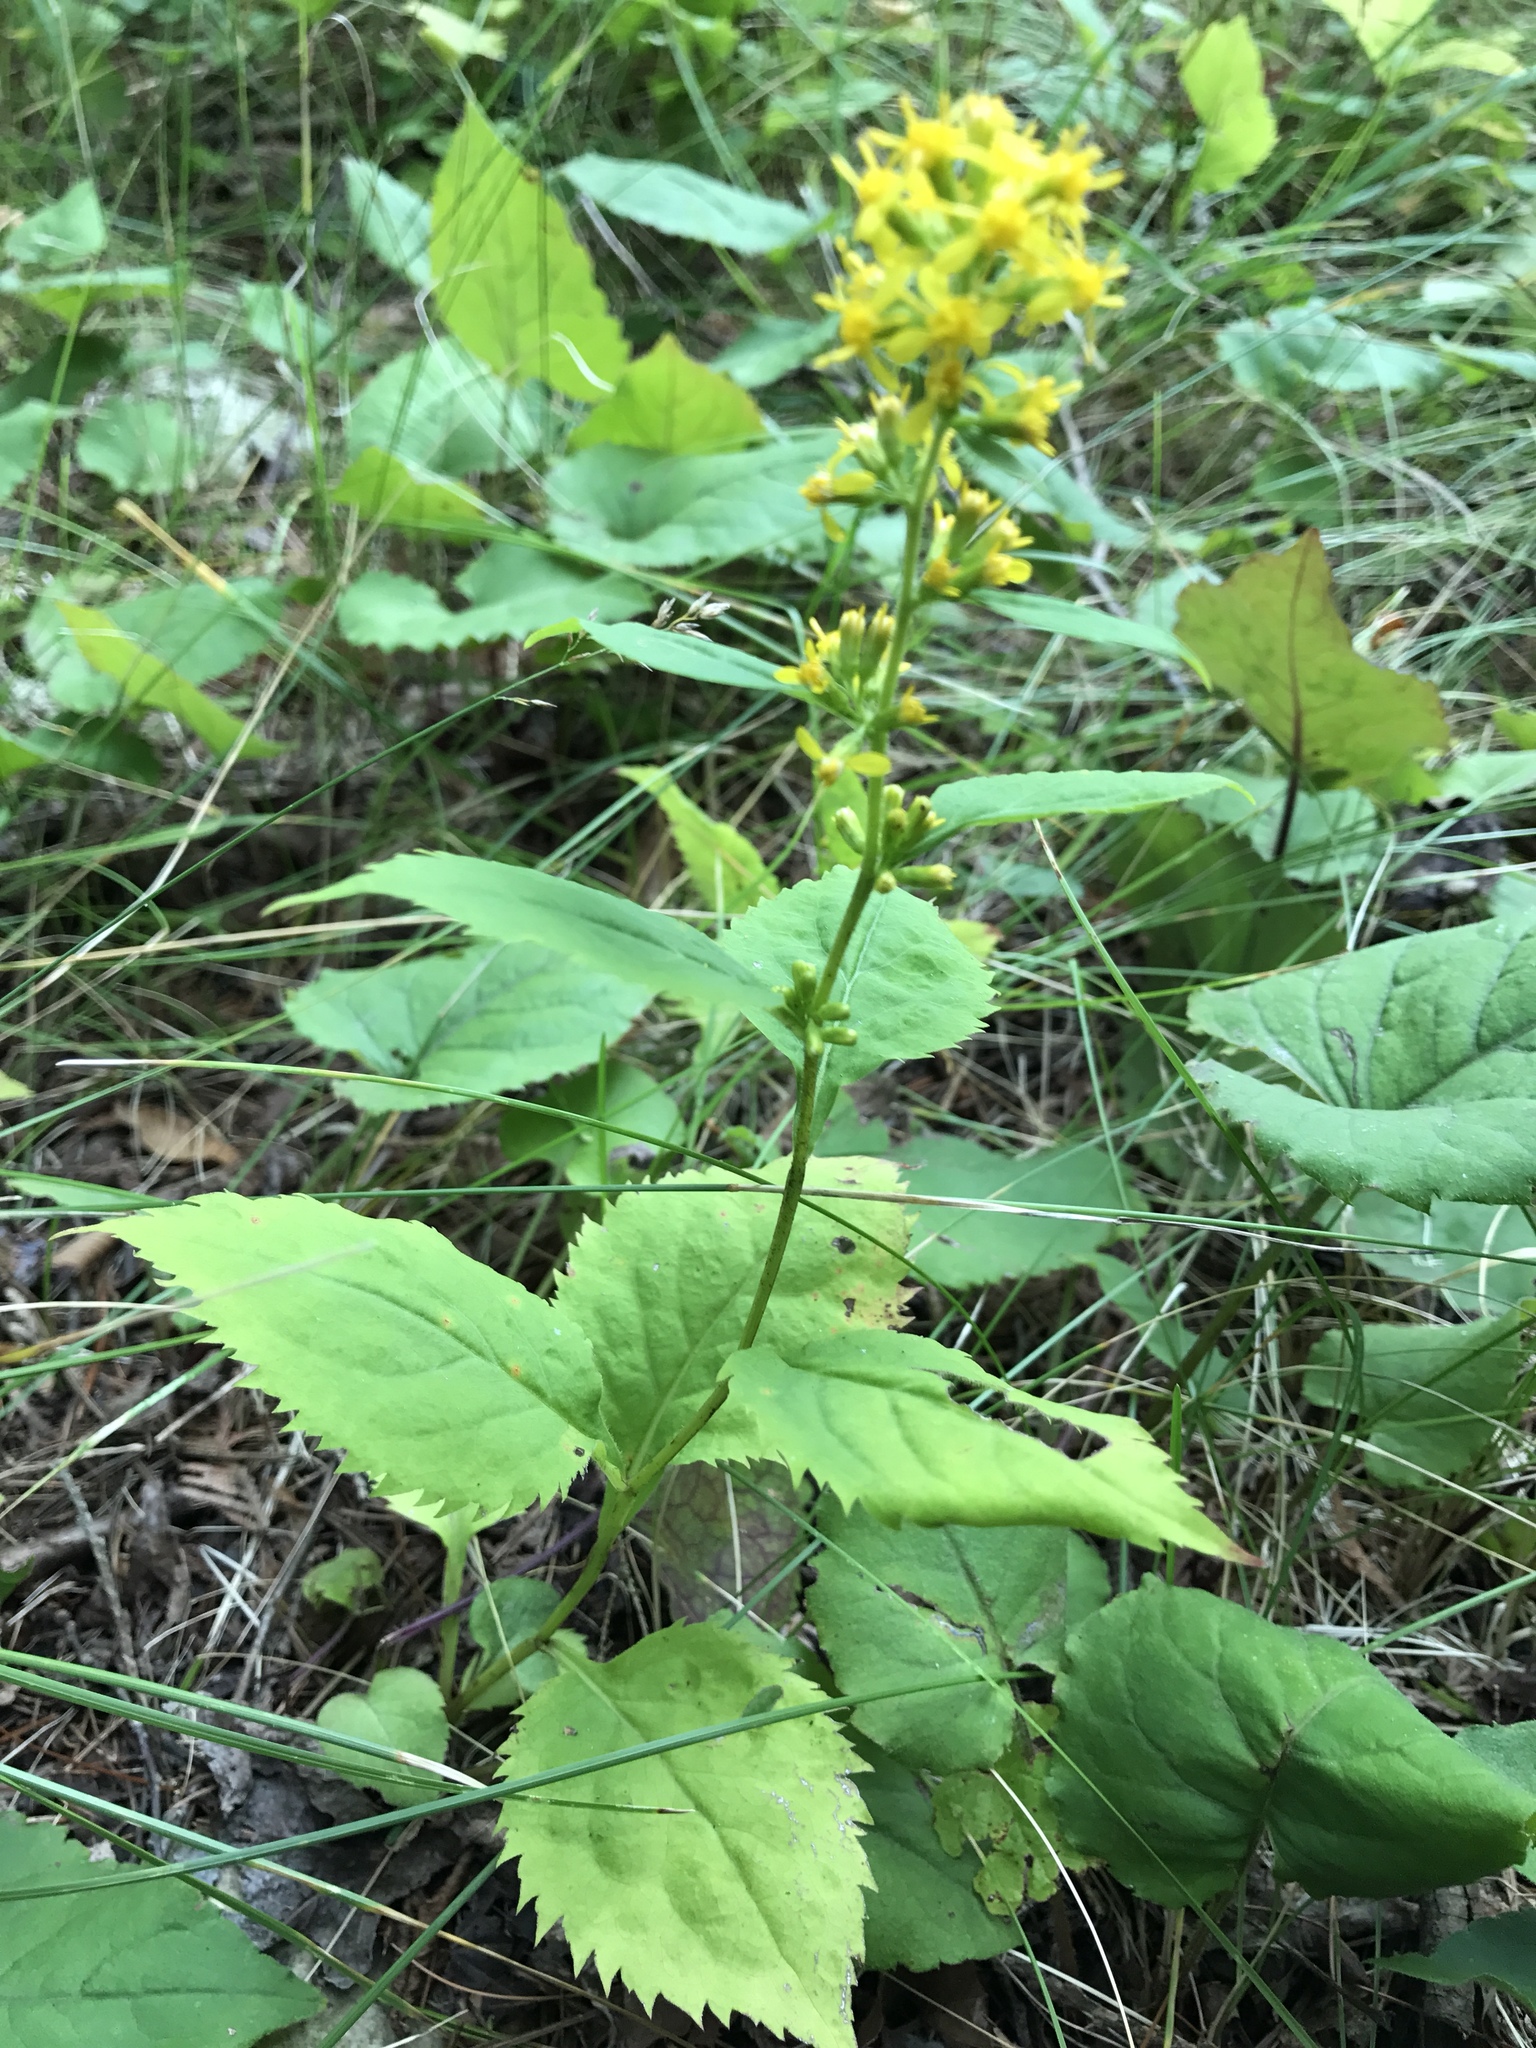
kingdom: Plantae
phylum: Tracheophyta
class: Magnoliopsida
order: Asterales
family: Asteraceae
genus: Solidago
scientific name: Solidago flexicaulis
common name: Zig-zag goldenrod
